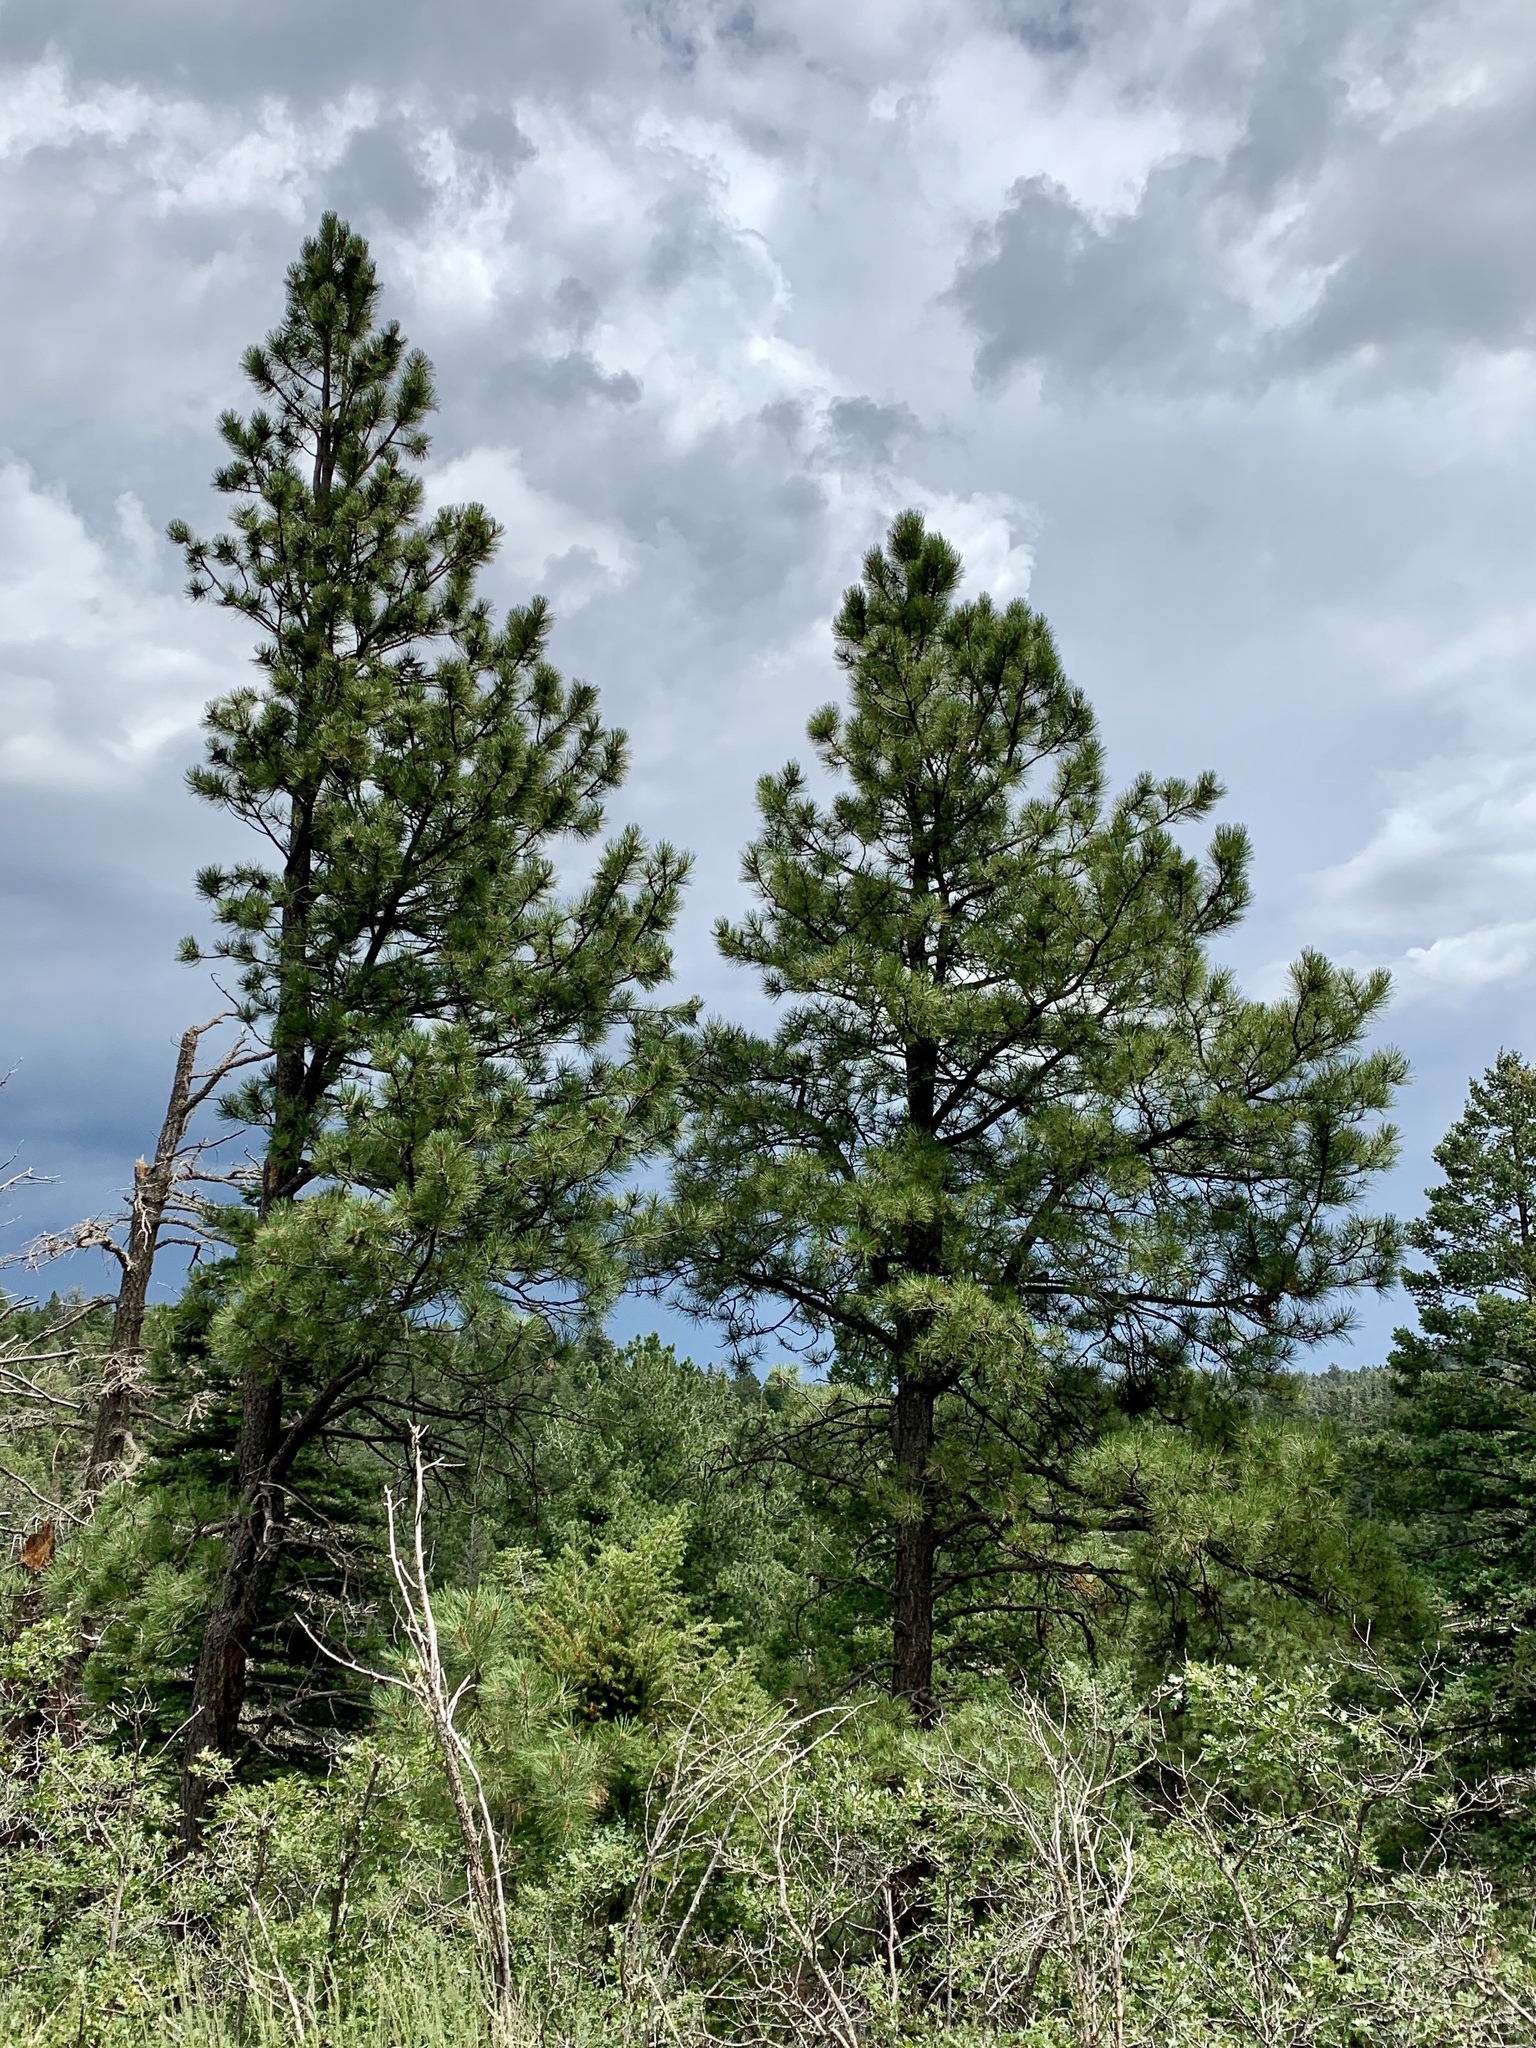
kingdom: Plantae
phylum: Tracheophyta
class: Pinopsida
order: Pinales
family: Pinaceae
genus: Pinus
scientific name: Pinus ponderosa
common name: Western yellow-pine
